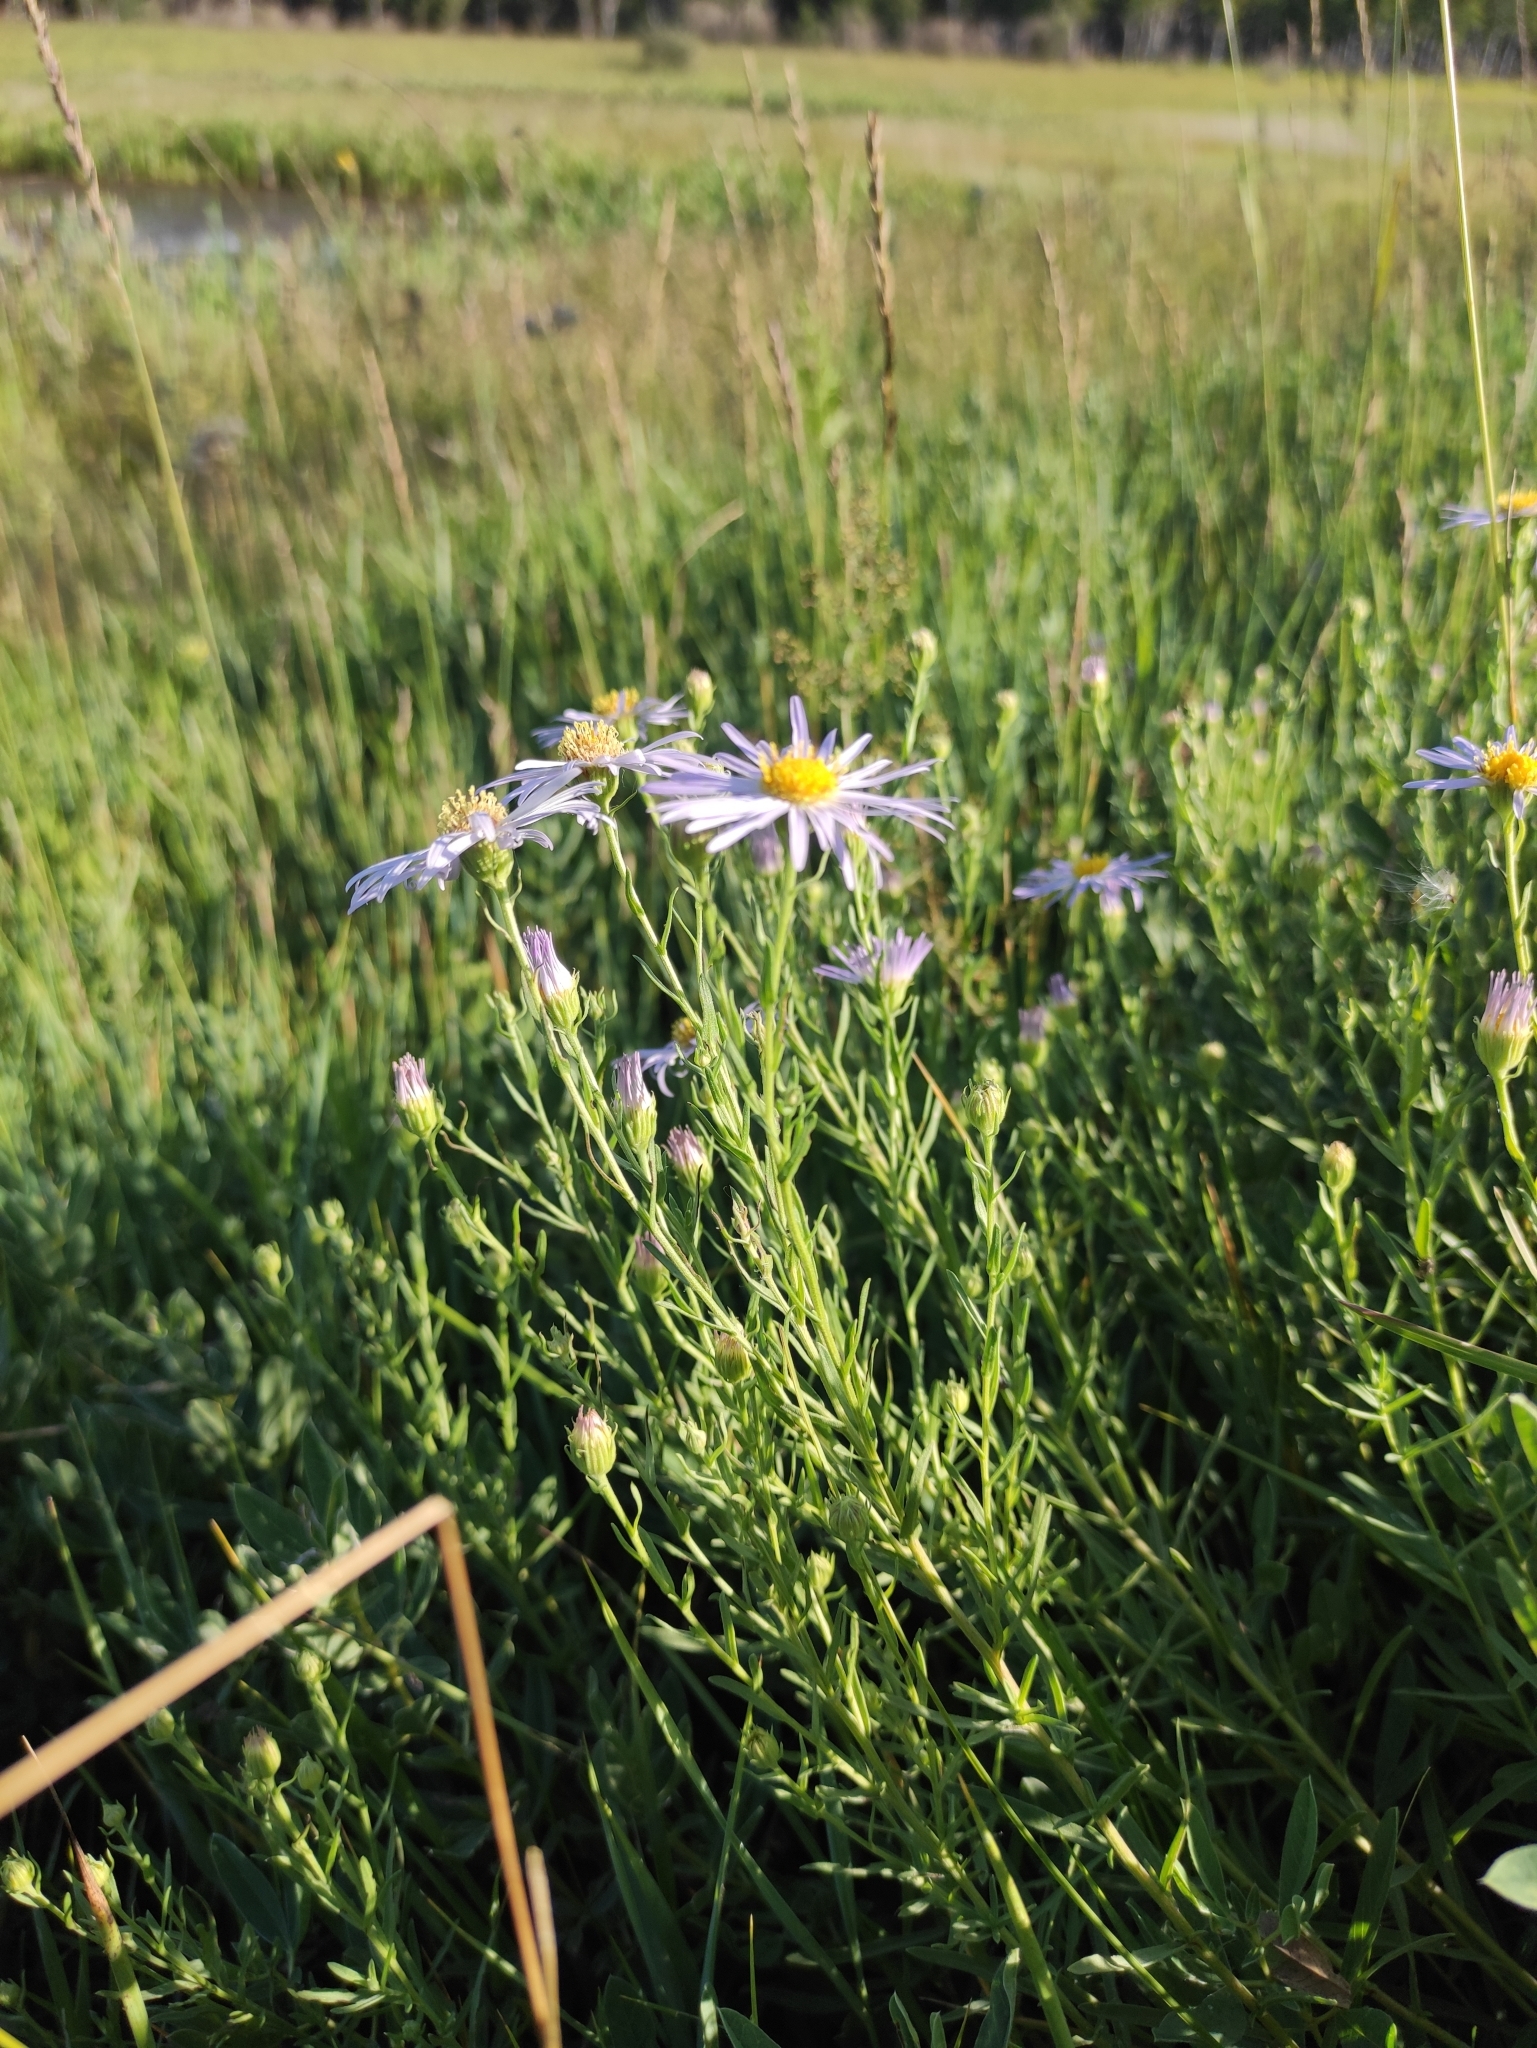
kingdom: Plantae
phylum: Tracheophyta
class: Magnoliopsida
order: Asterales
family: Asteraceae
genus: Aster
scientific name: Aster biennis
